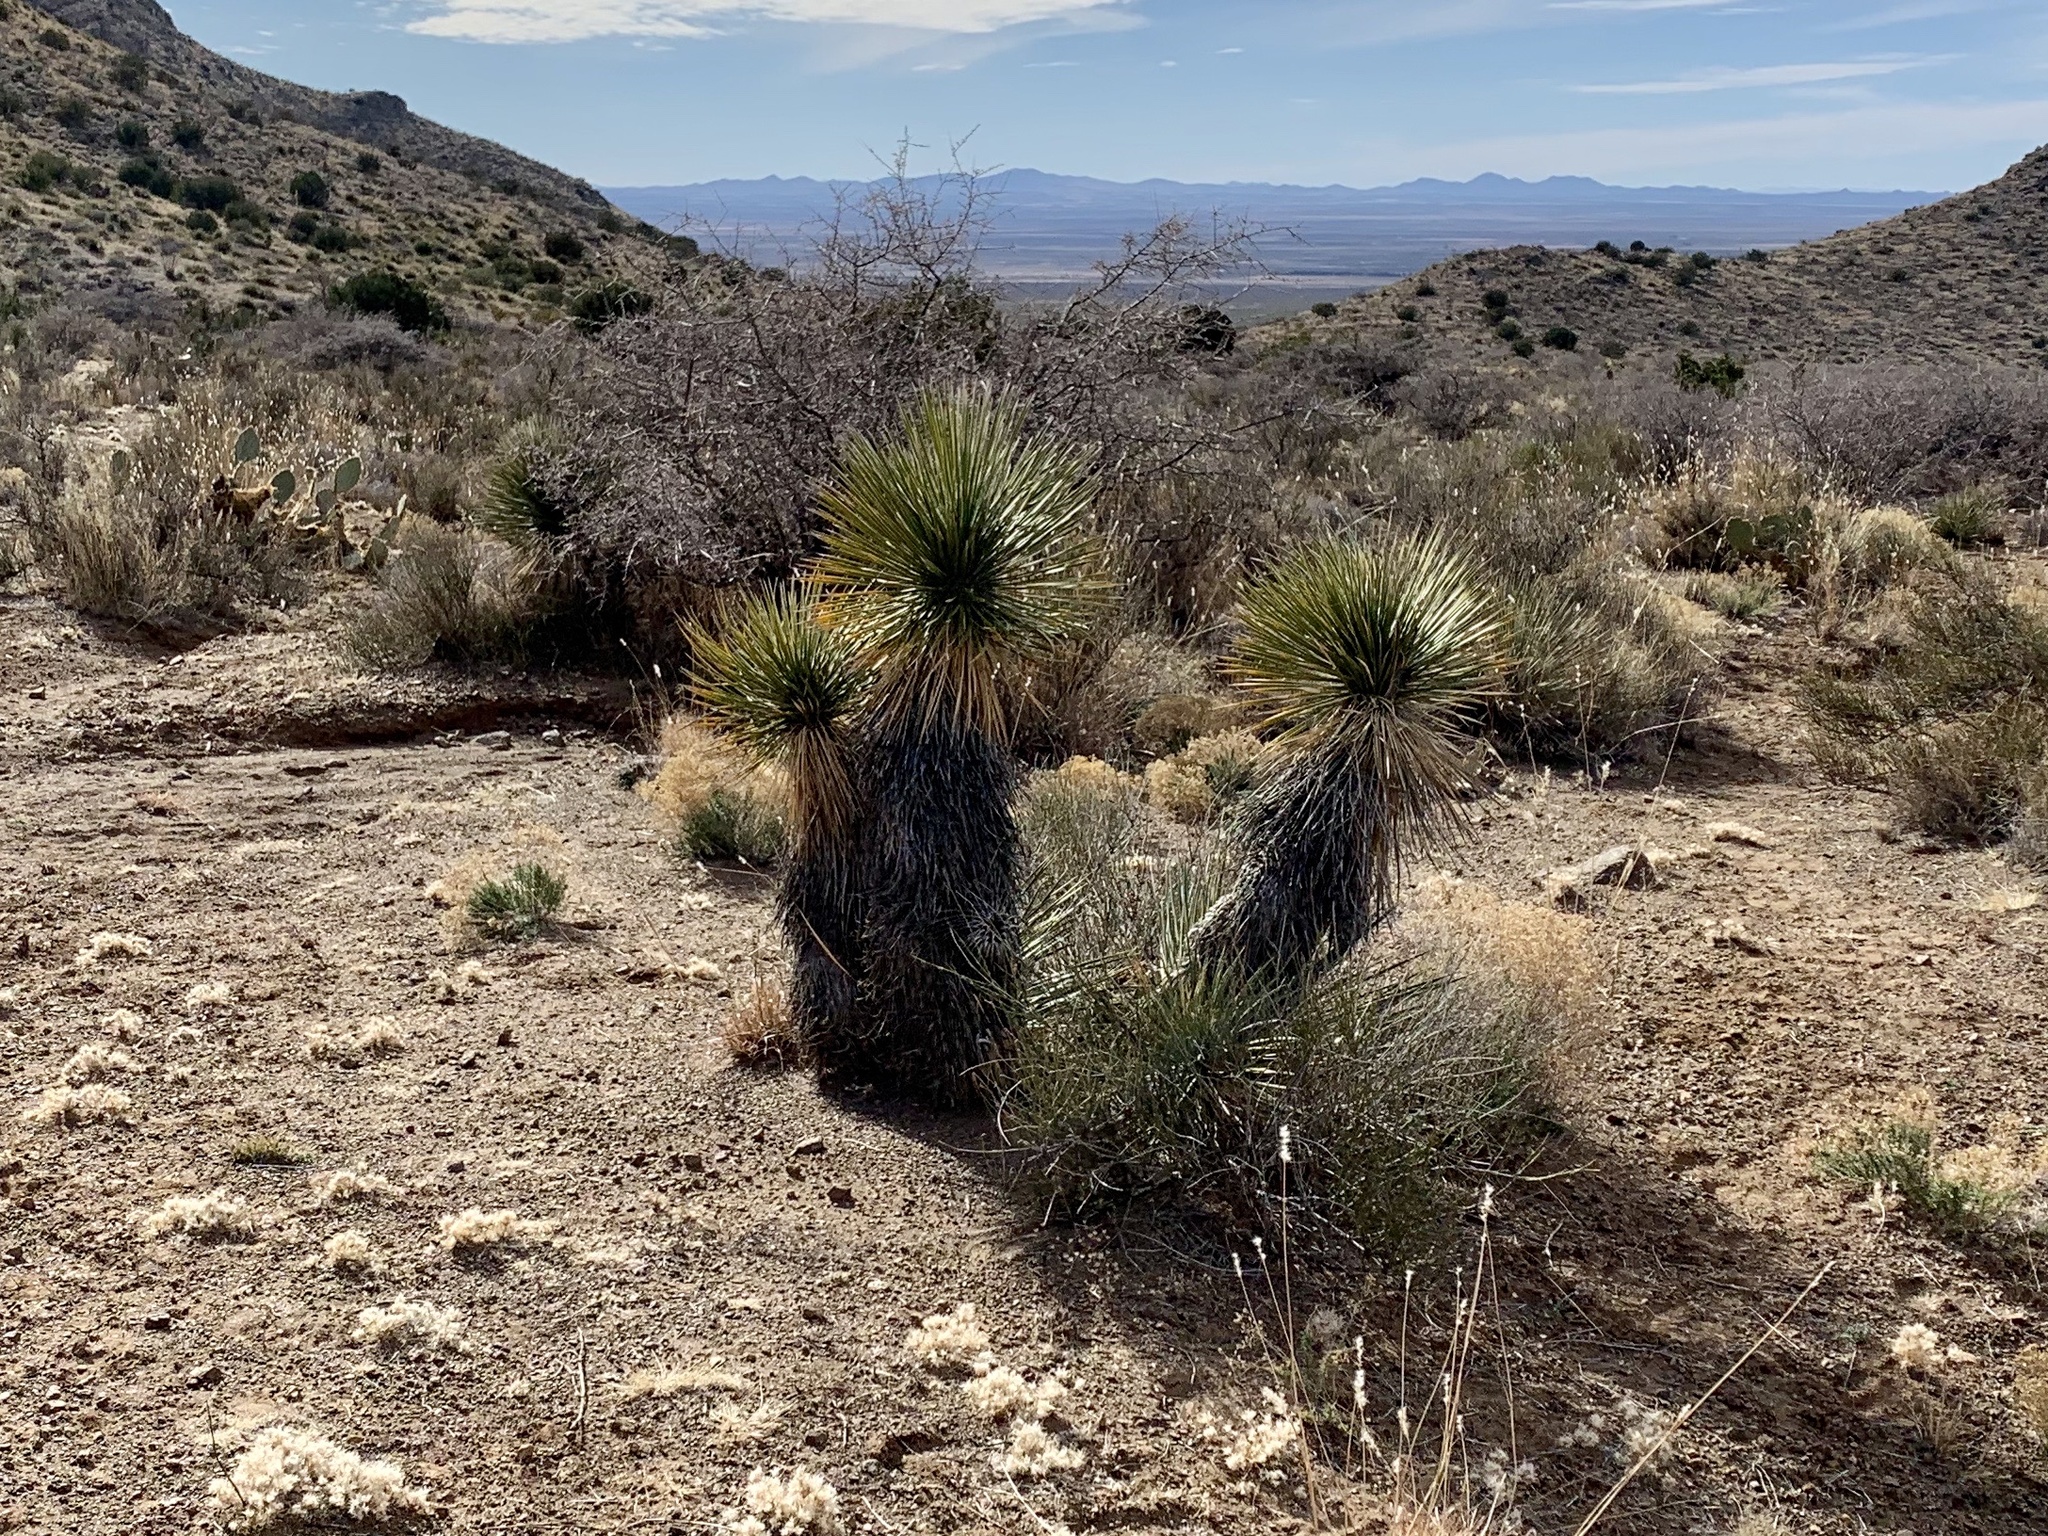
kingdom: Plantae
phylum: Tracheophyta
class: Liliopsida
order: Asparagales
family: Asparagaceae
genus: Yucca
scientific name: Yucca elata
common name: Palmella
